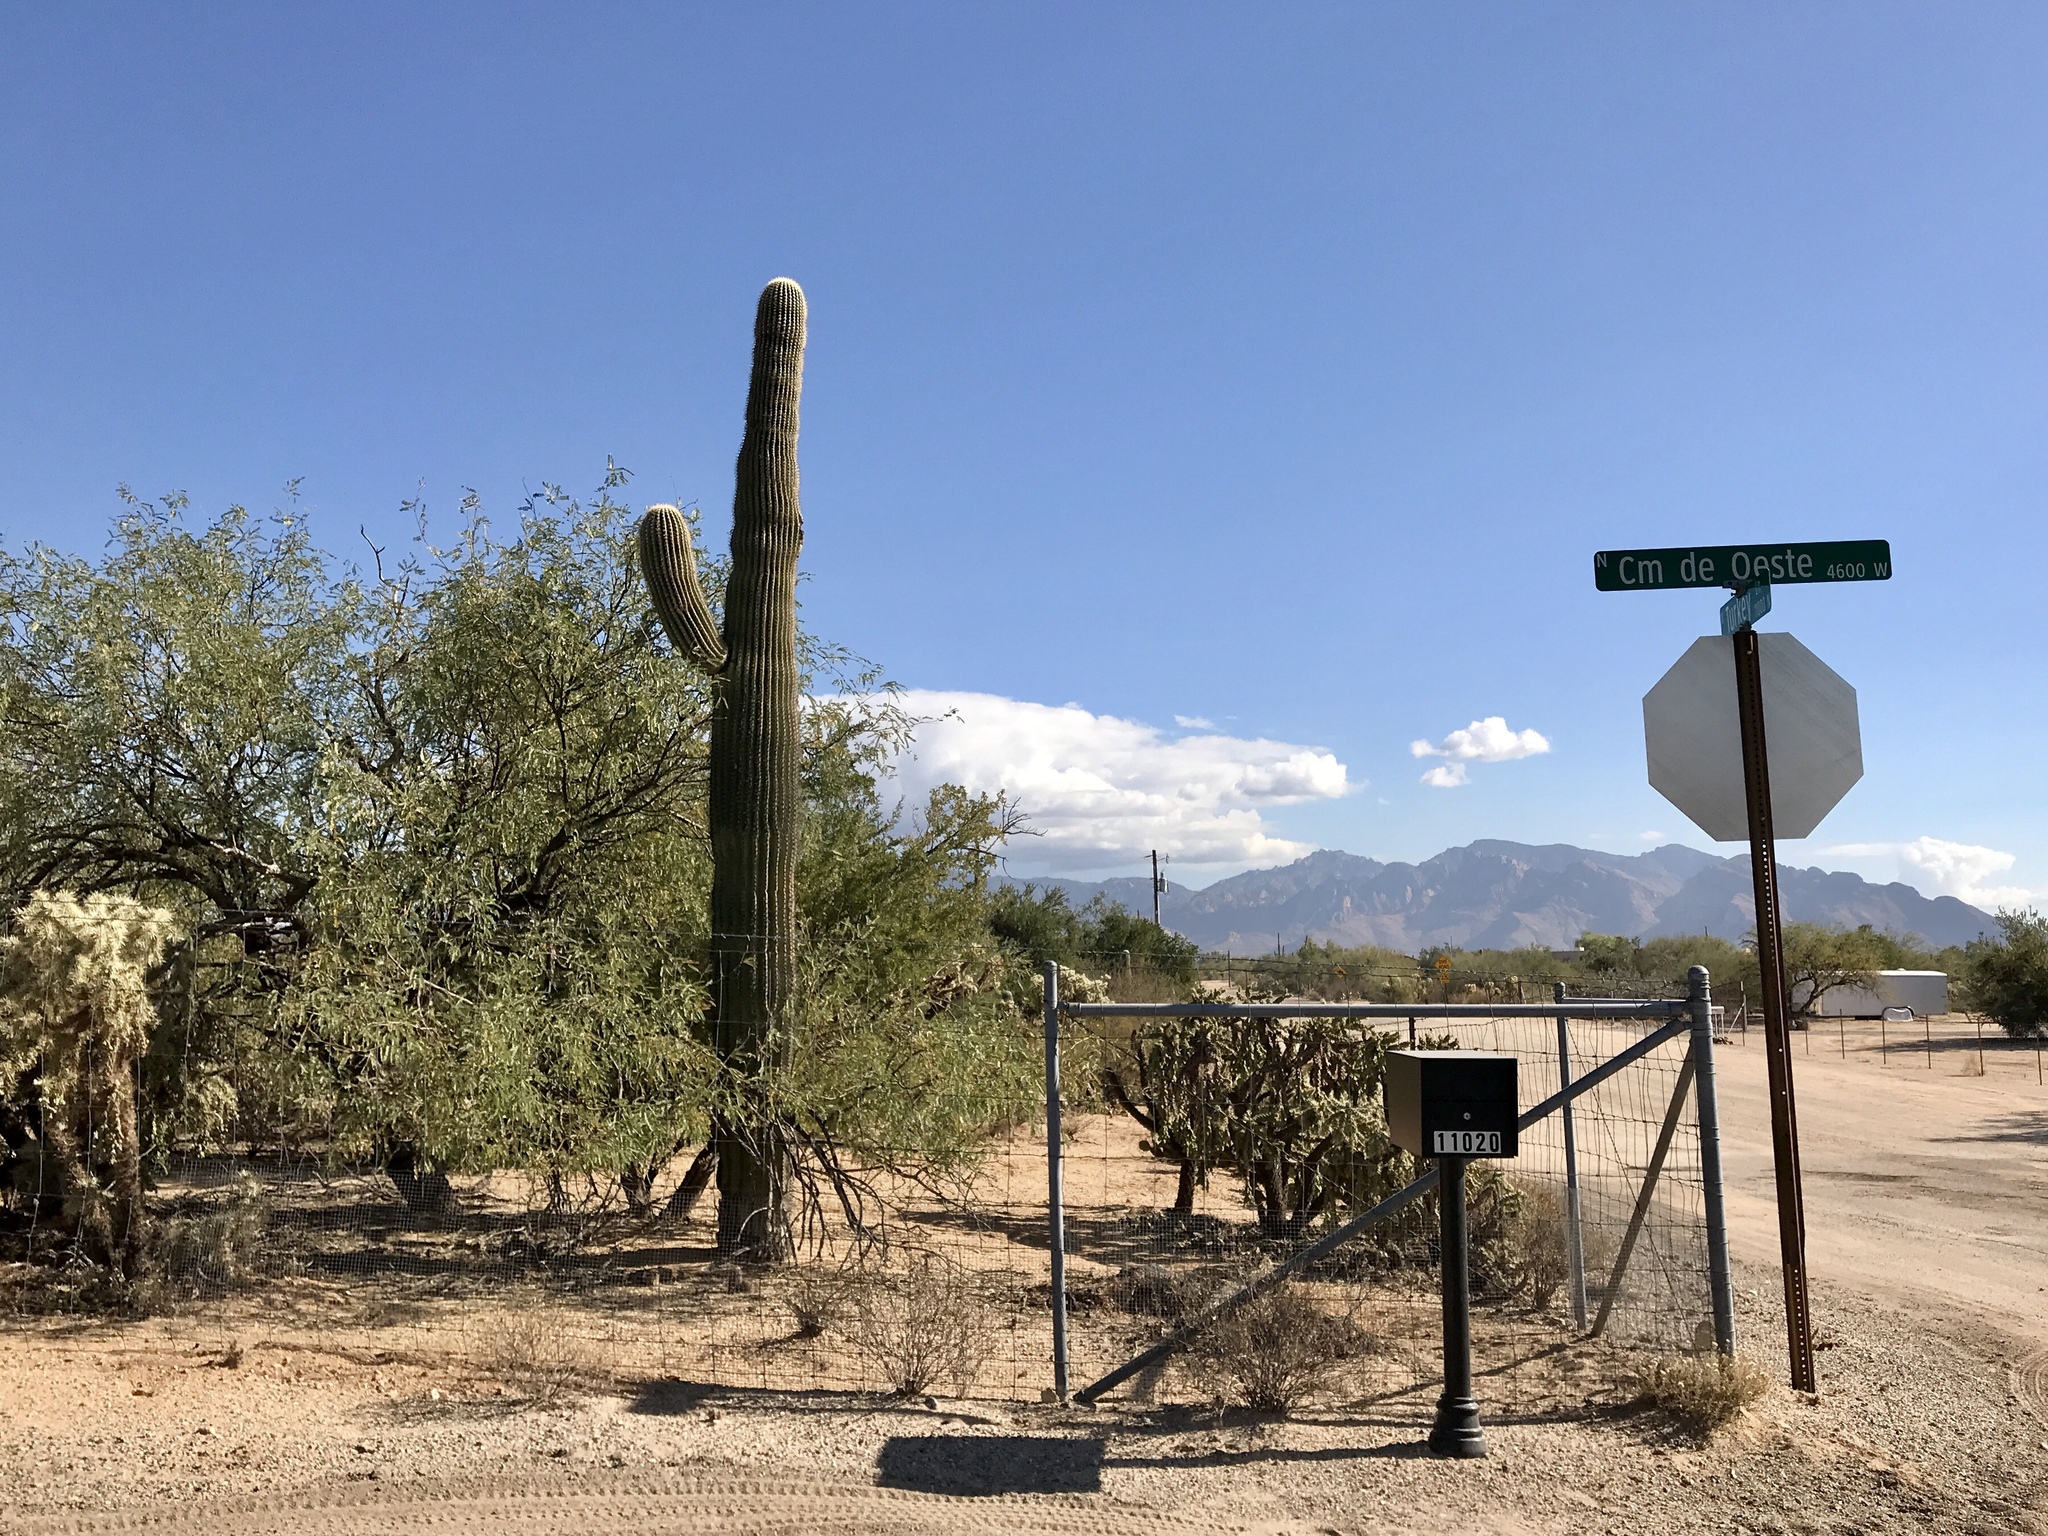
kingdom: Plantae
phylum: Tracheophyta
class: Magnoliopsida
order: Caryophyllales
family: Cactaceae
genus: Carnegiea
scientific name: Carnegiea gigantea
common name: Saguaro
